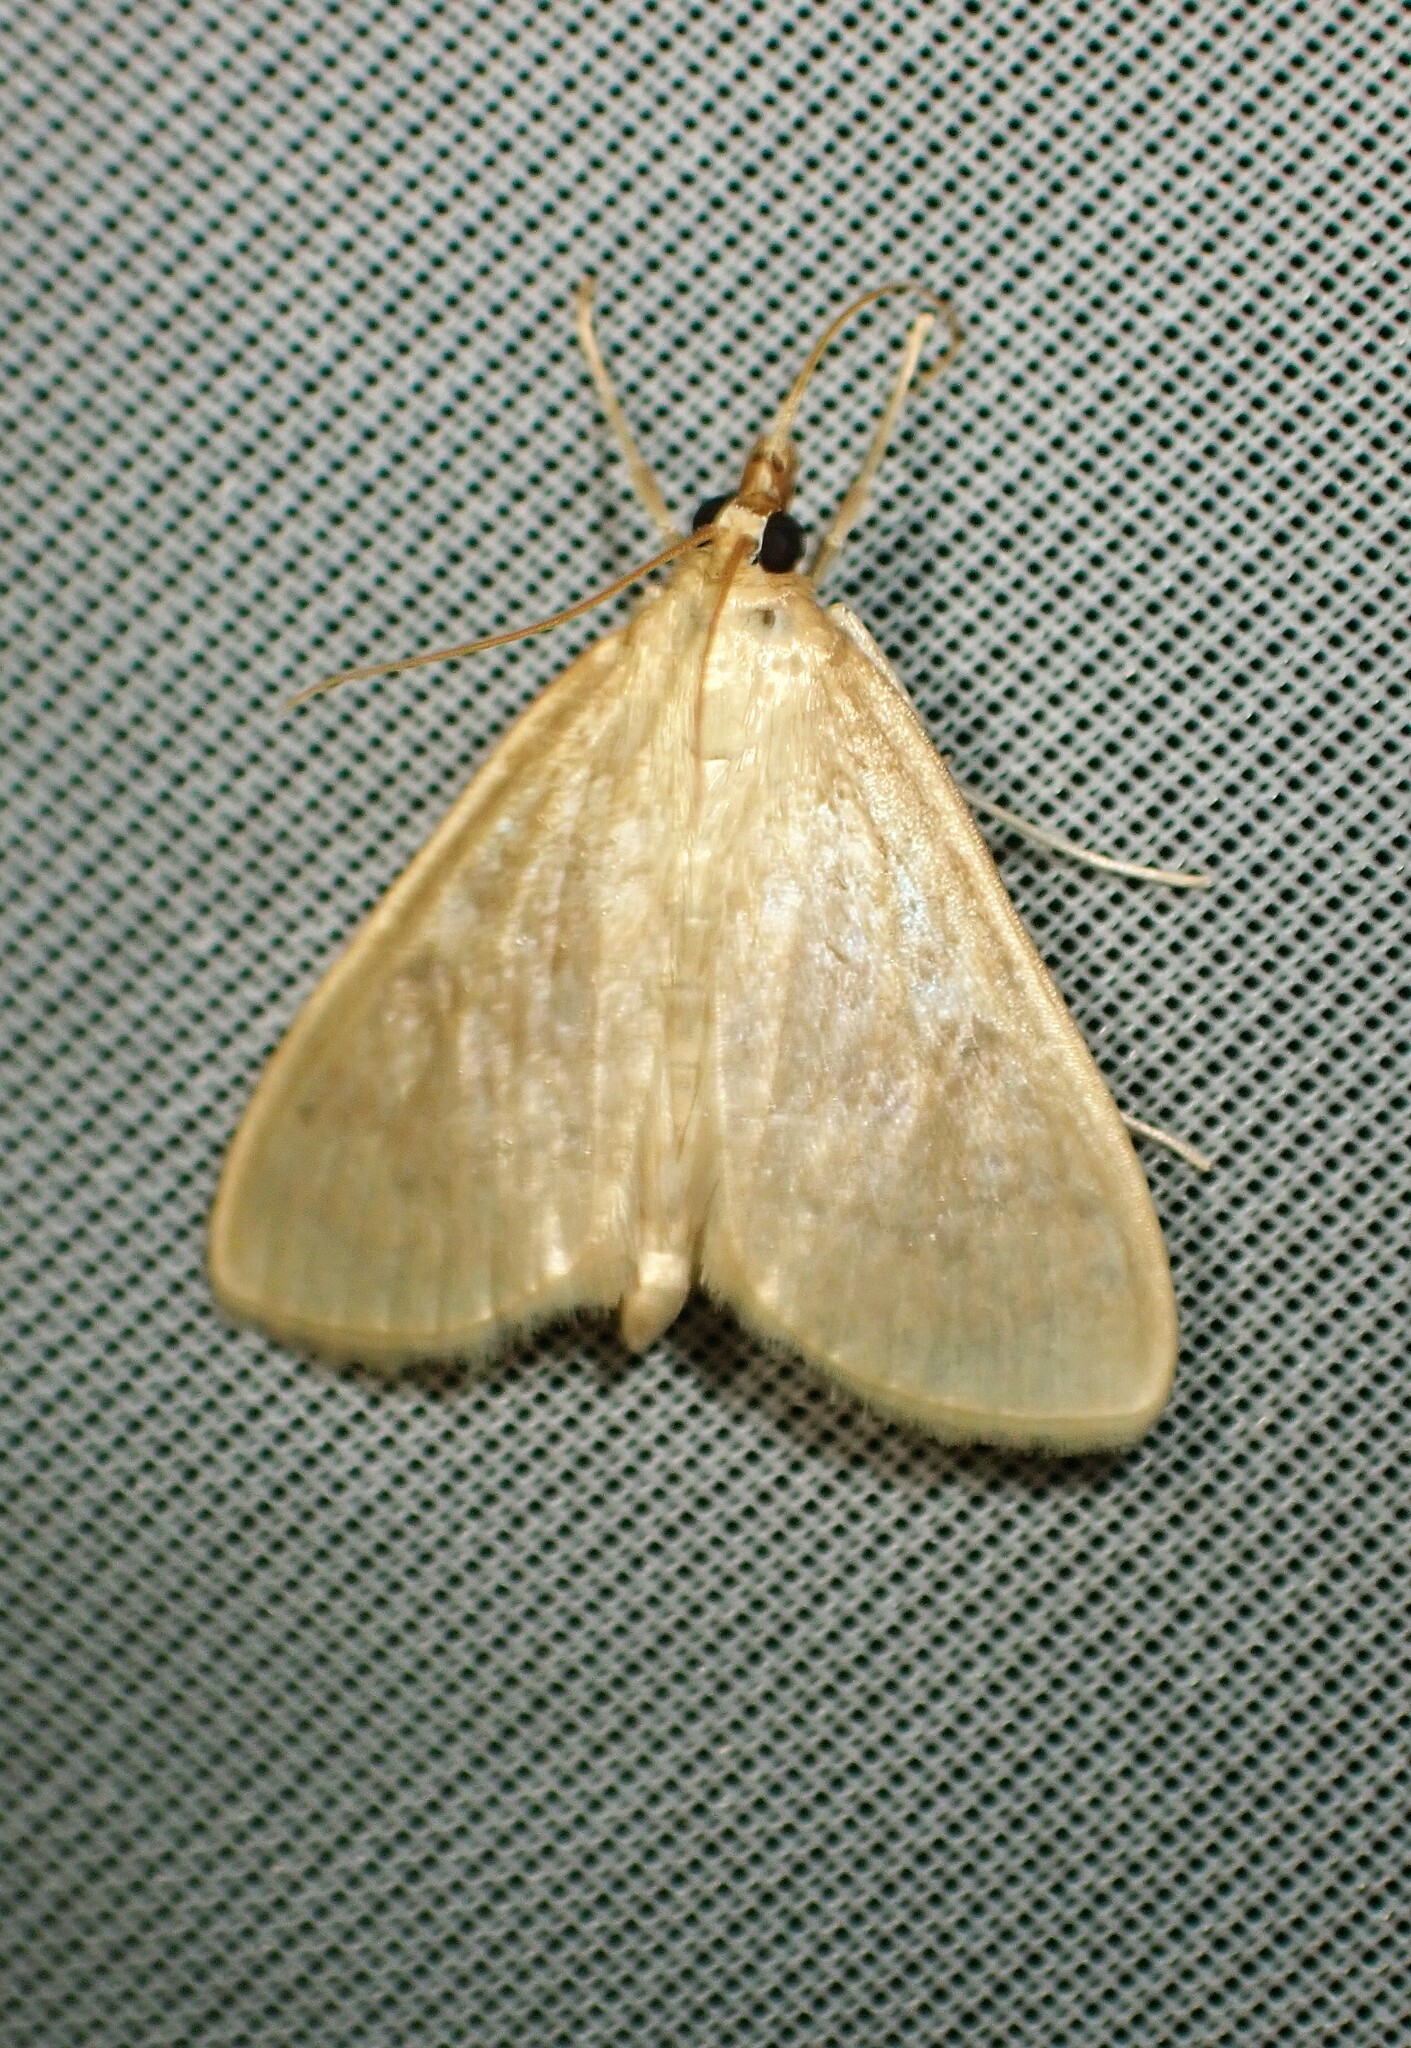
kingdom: Animalia
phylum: Arthropoda
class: Insecta
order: Lepidoptera
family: Crambidae
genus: Anania
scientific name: Anania Framinghamia helvalis
